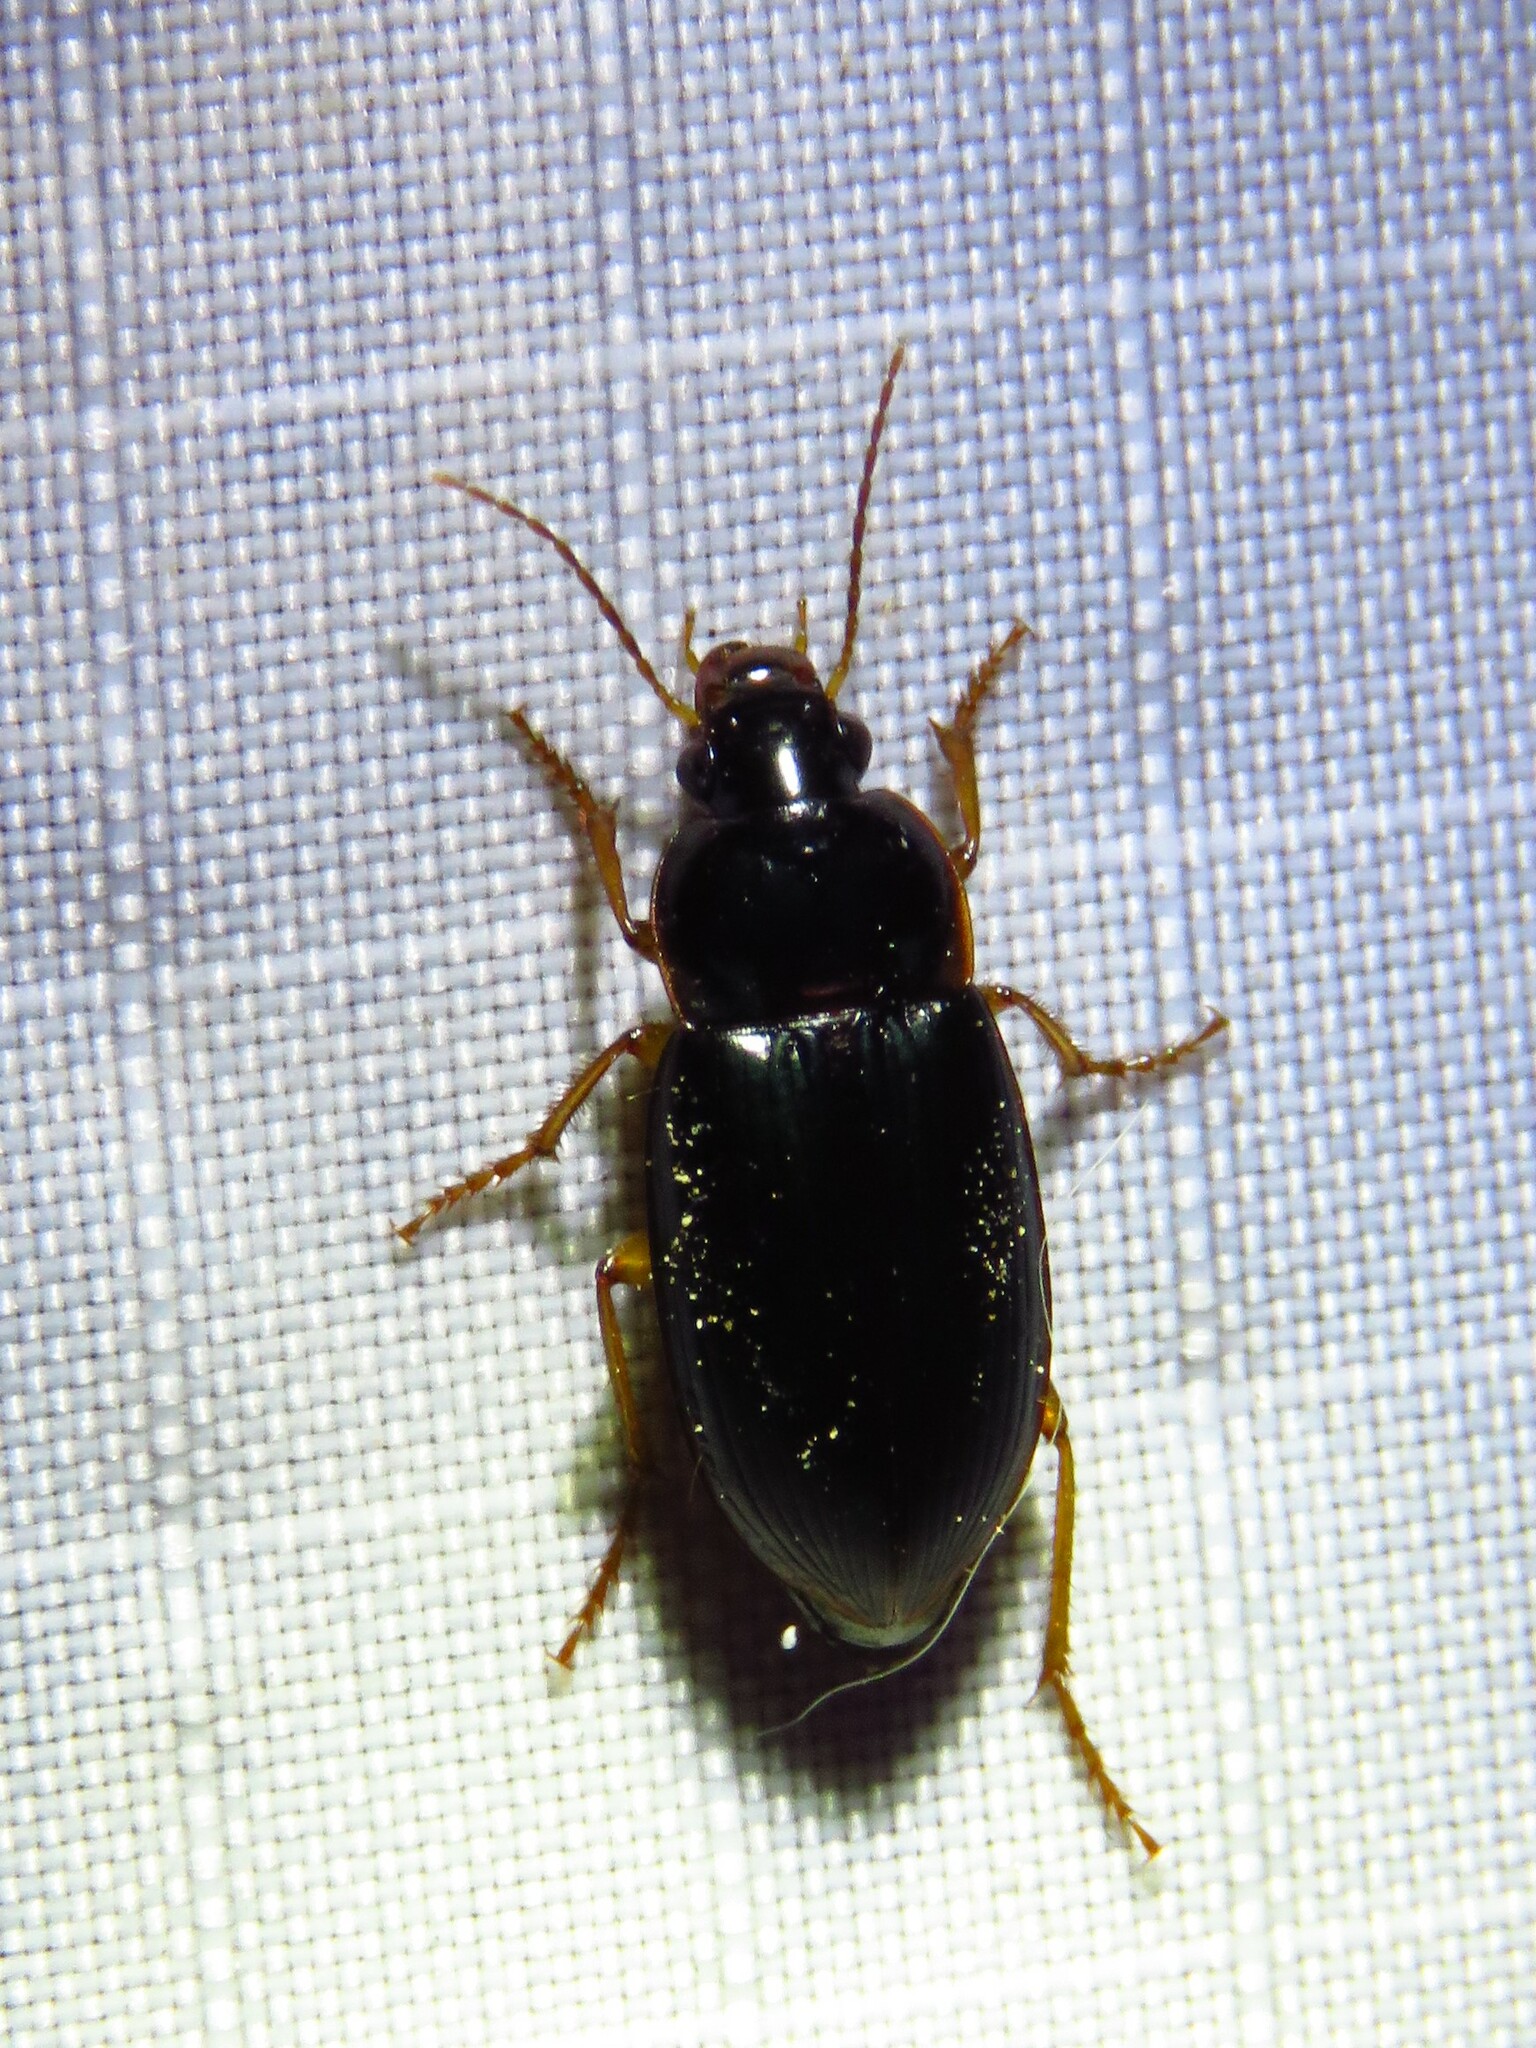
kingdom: Animalia
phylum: Arthropoda
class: Insecta
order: Coleoptera
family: Carabidae
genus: Notiobia
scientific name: Notiobia terminata
